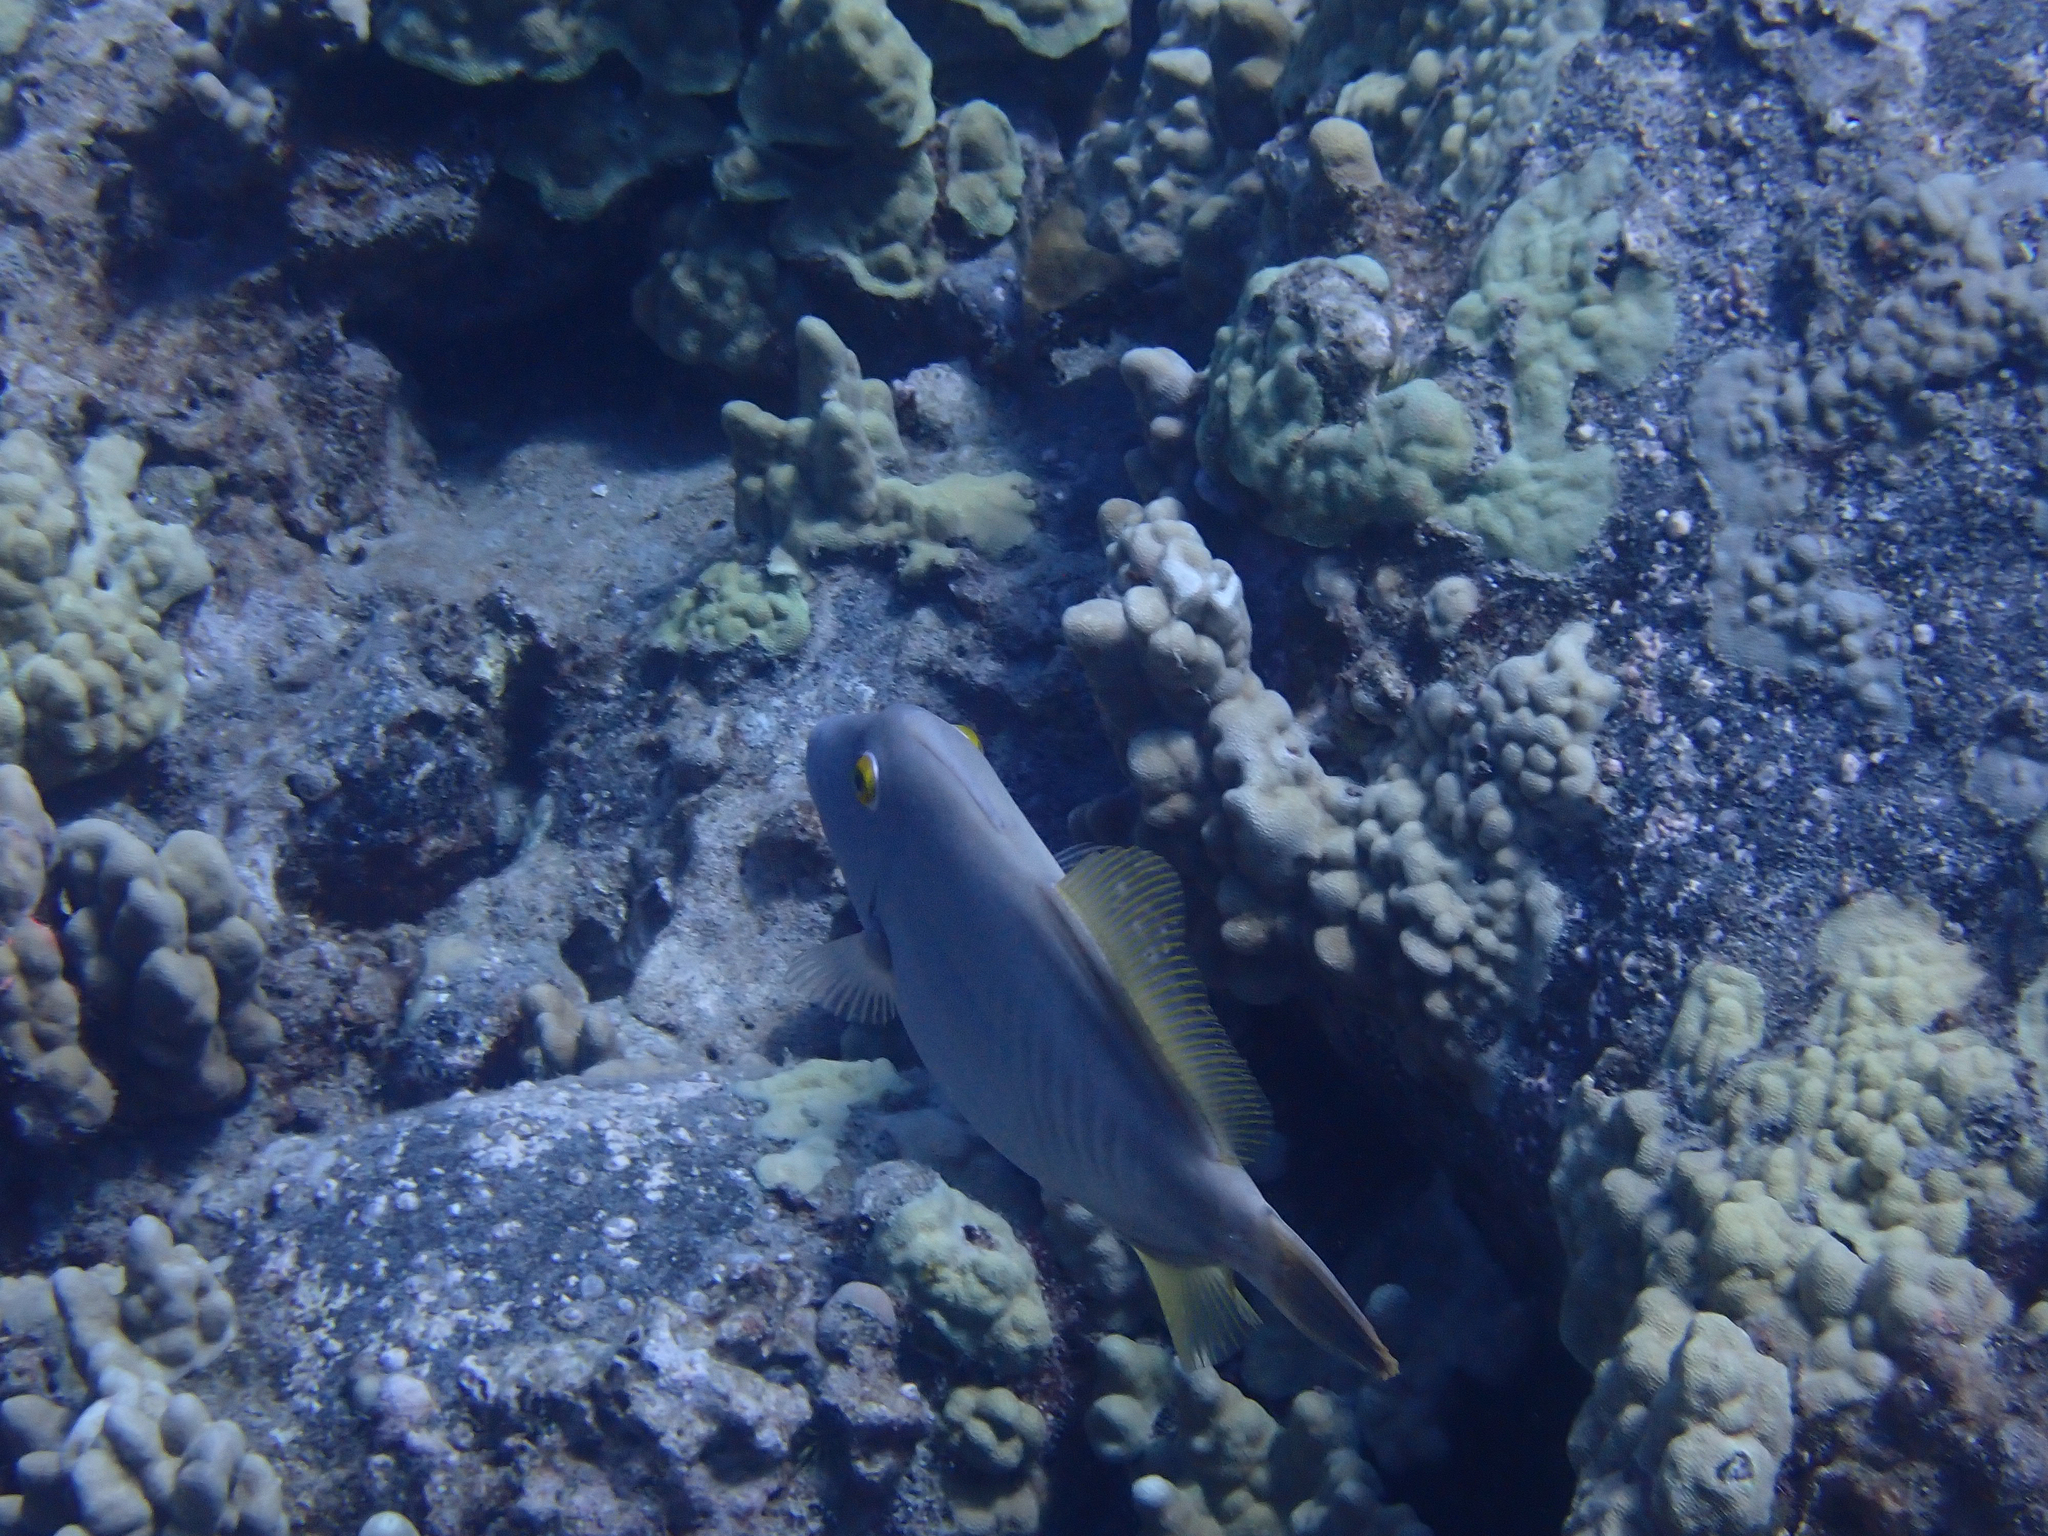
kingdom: Animalia
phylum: Chordata
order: Tetraodontiformes
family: Monacanthidae
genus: Cantherhines
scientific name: Cantherhines dumerilii
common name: Barred filefish
